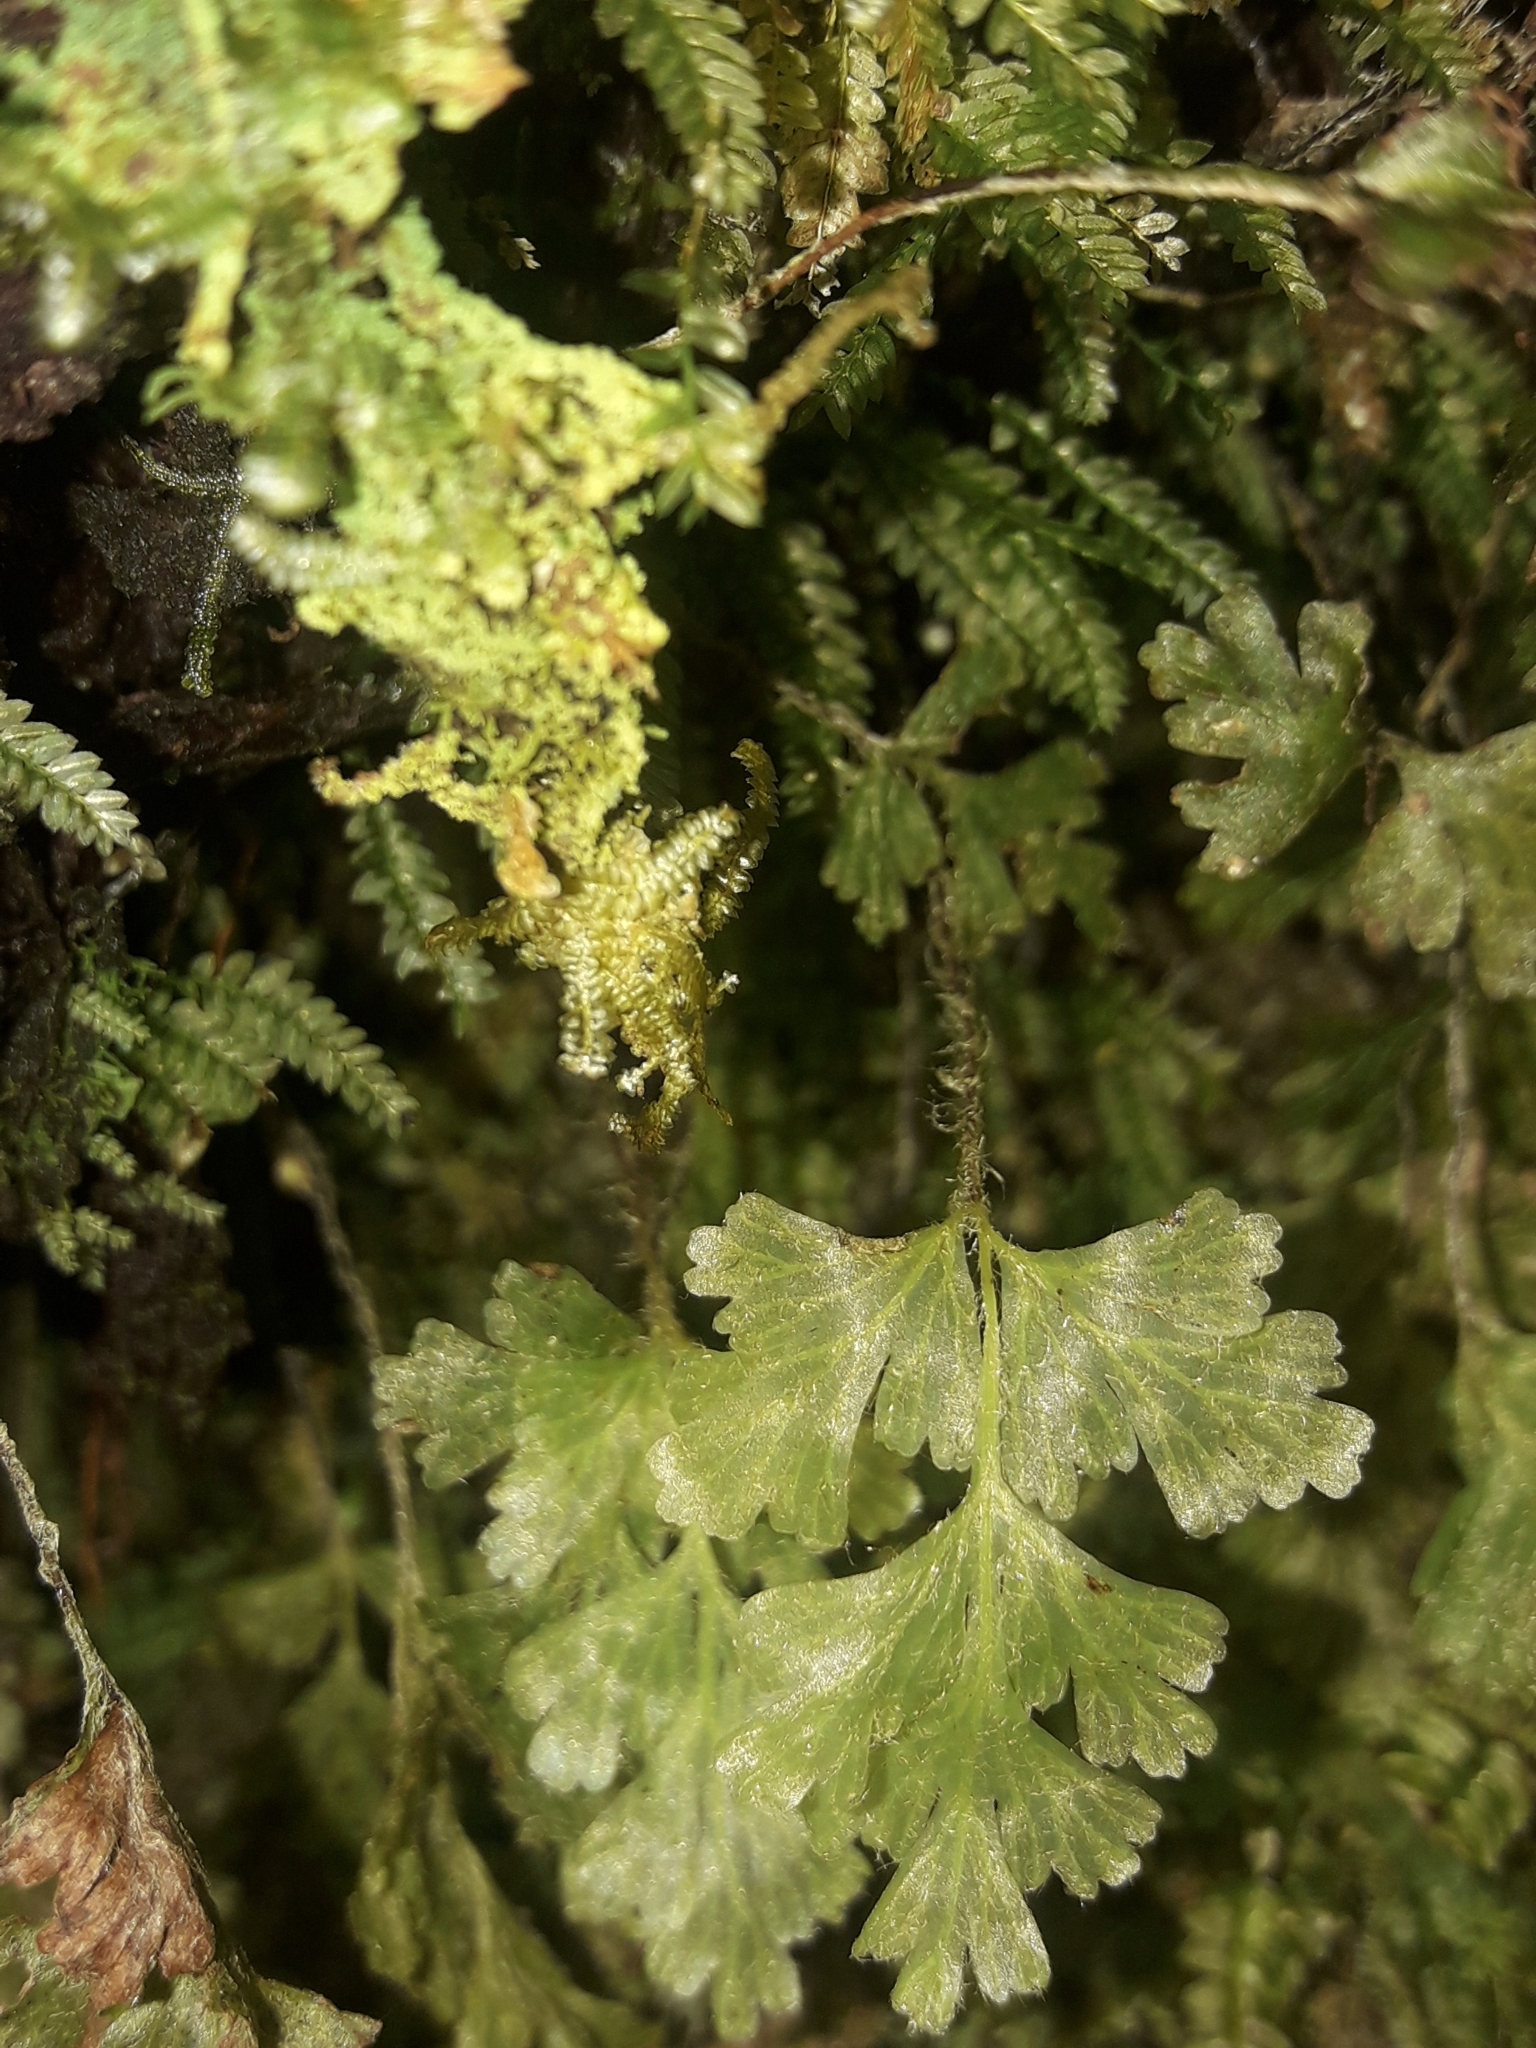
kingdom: Plantae
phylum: Tracheophyta
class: Polypodiopsida
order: Hymenophyllales
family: Hymenophyllaceae
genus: Hymenophyllum
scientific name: Hymenophyllum rufescens
